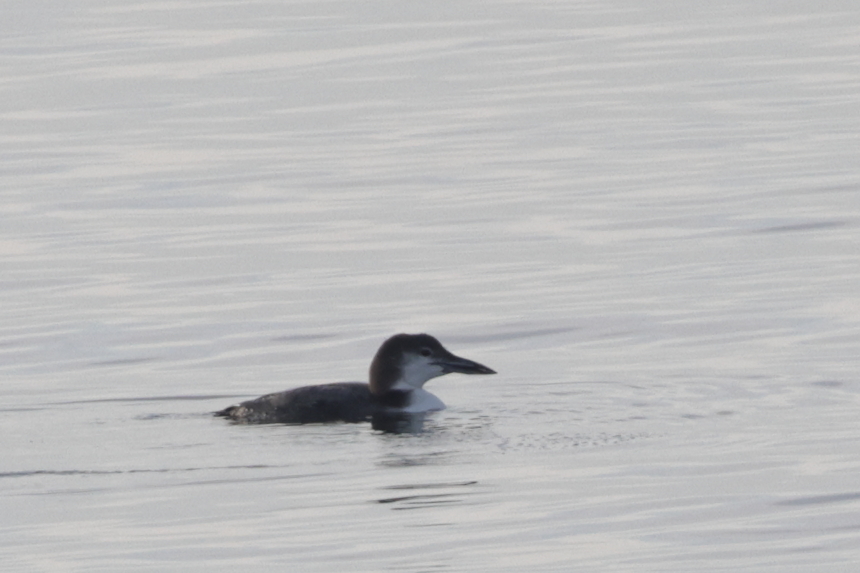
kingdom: Animalia
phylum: Chordata
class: Aves
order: Gaviiformes
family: Gaviidae
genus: Gavia
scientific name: Gavia immer
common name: Common loon
